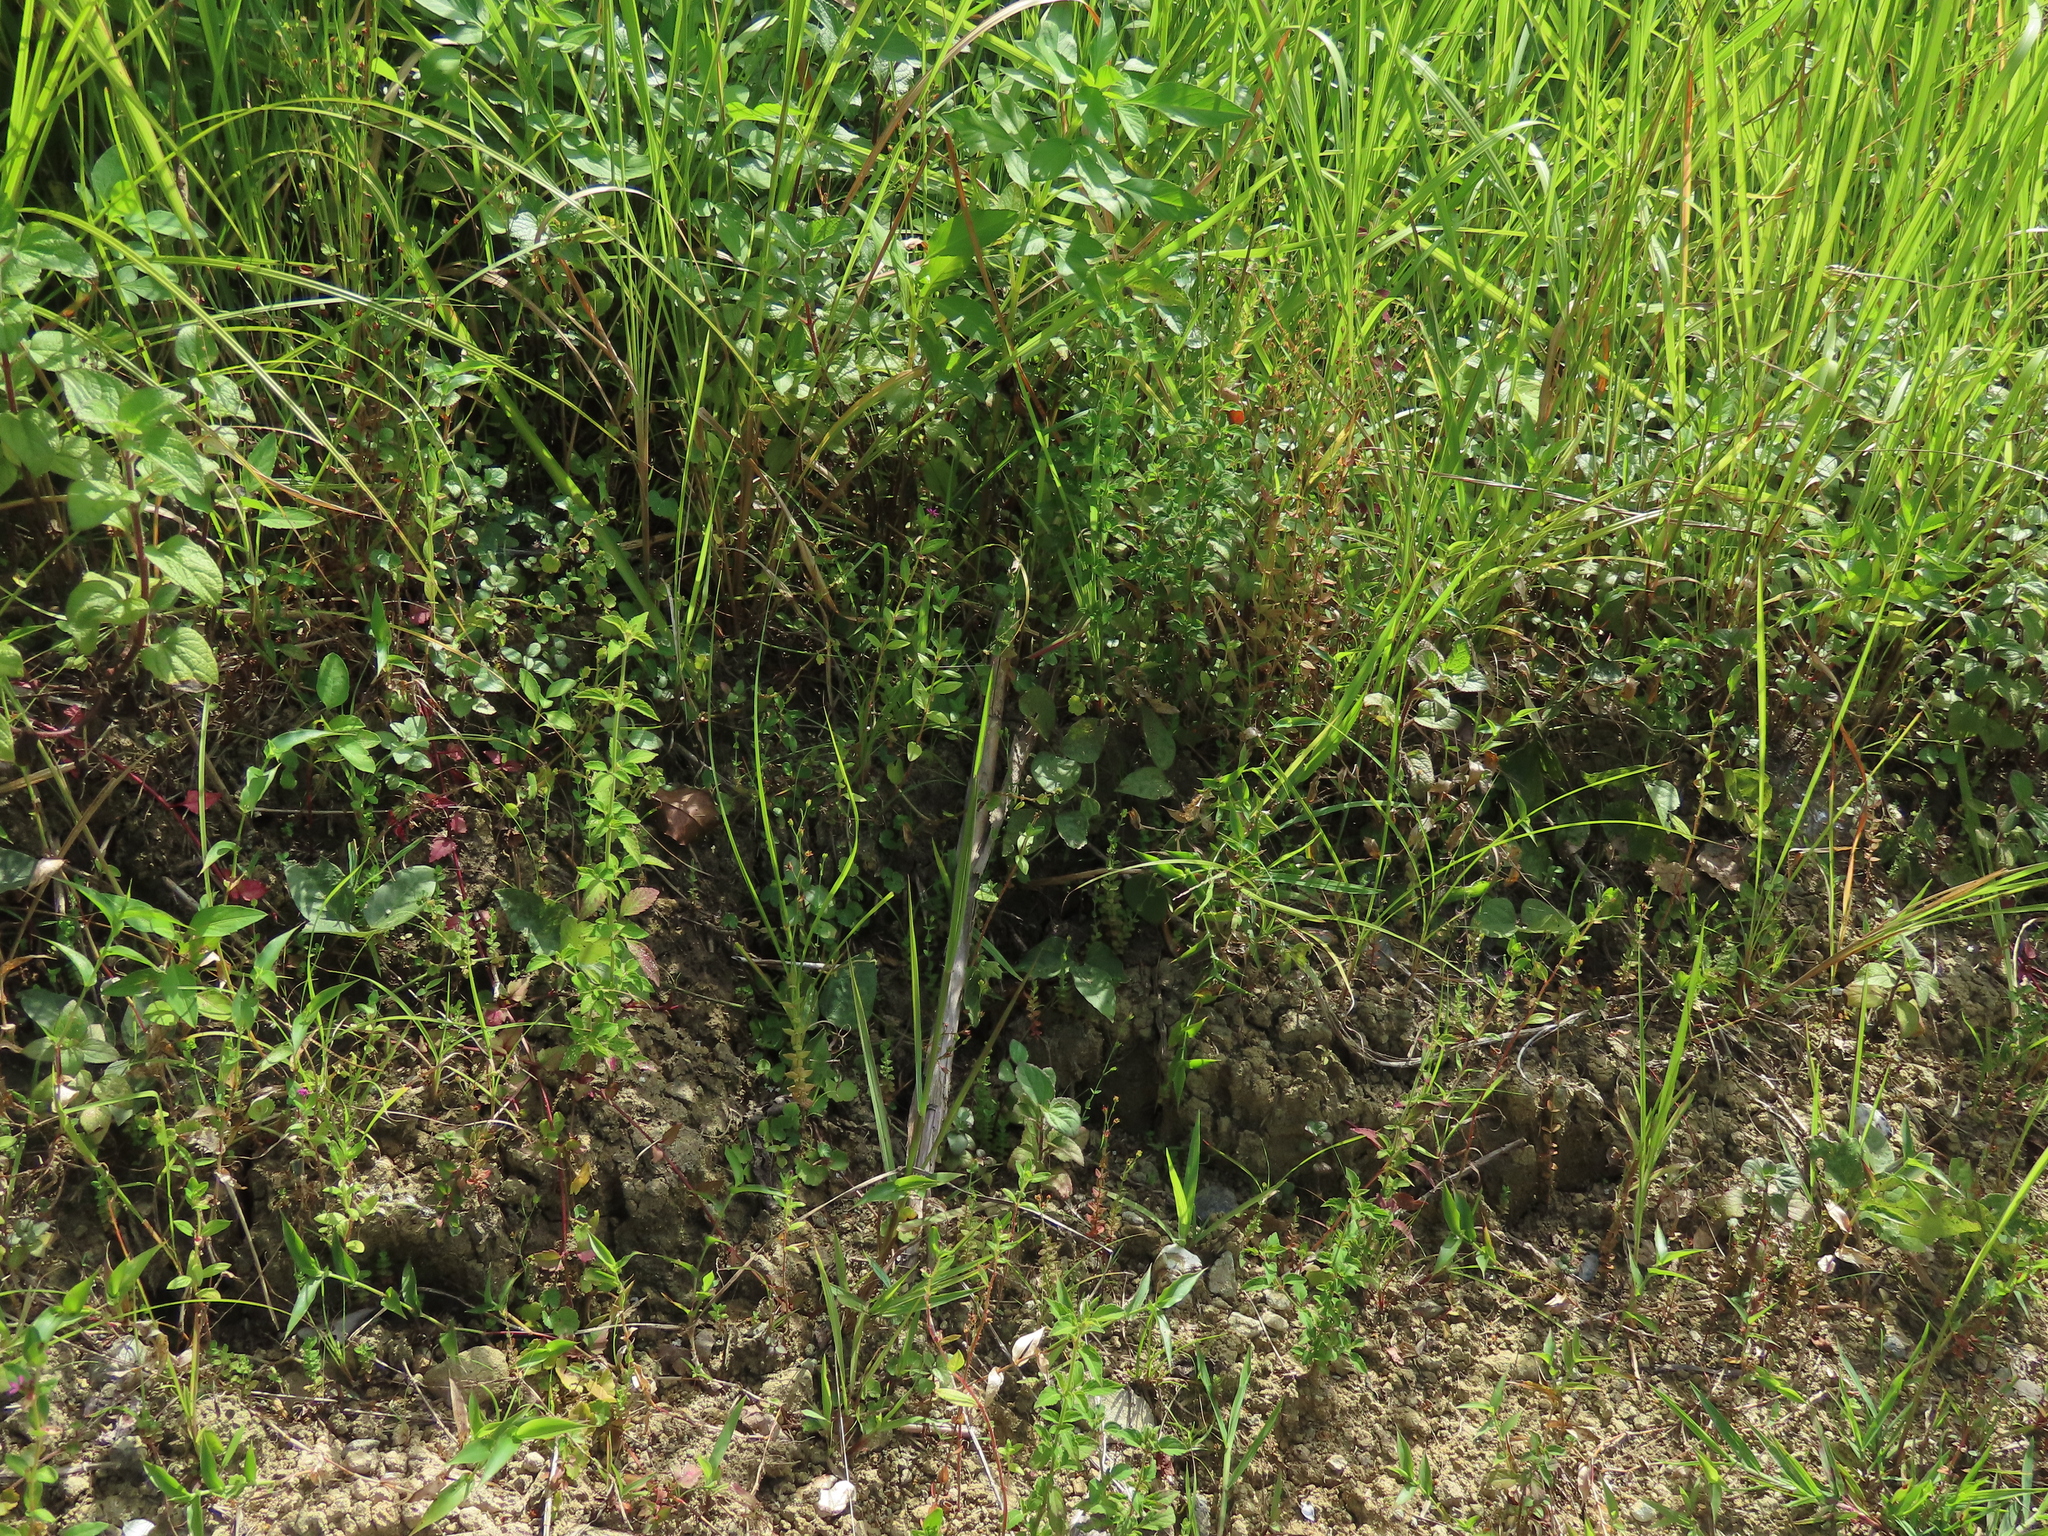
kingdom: Plantae
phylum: Tracheophyta
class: Magnoliopsida
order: Malpighiales
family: Hypericaceae
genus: Hypericum
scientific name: Hypericum japonicum
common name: Matted st. john's-wort
